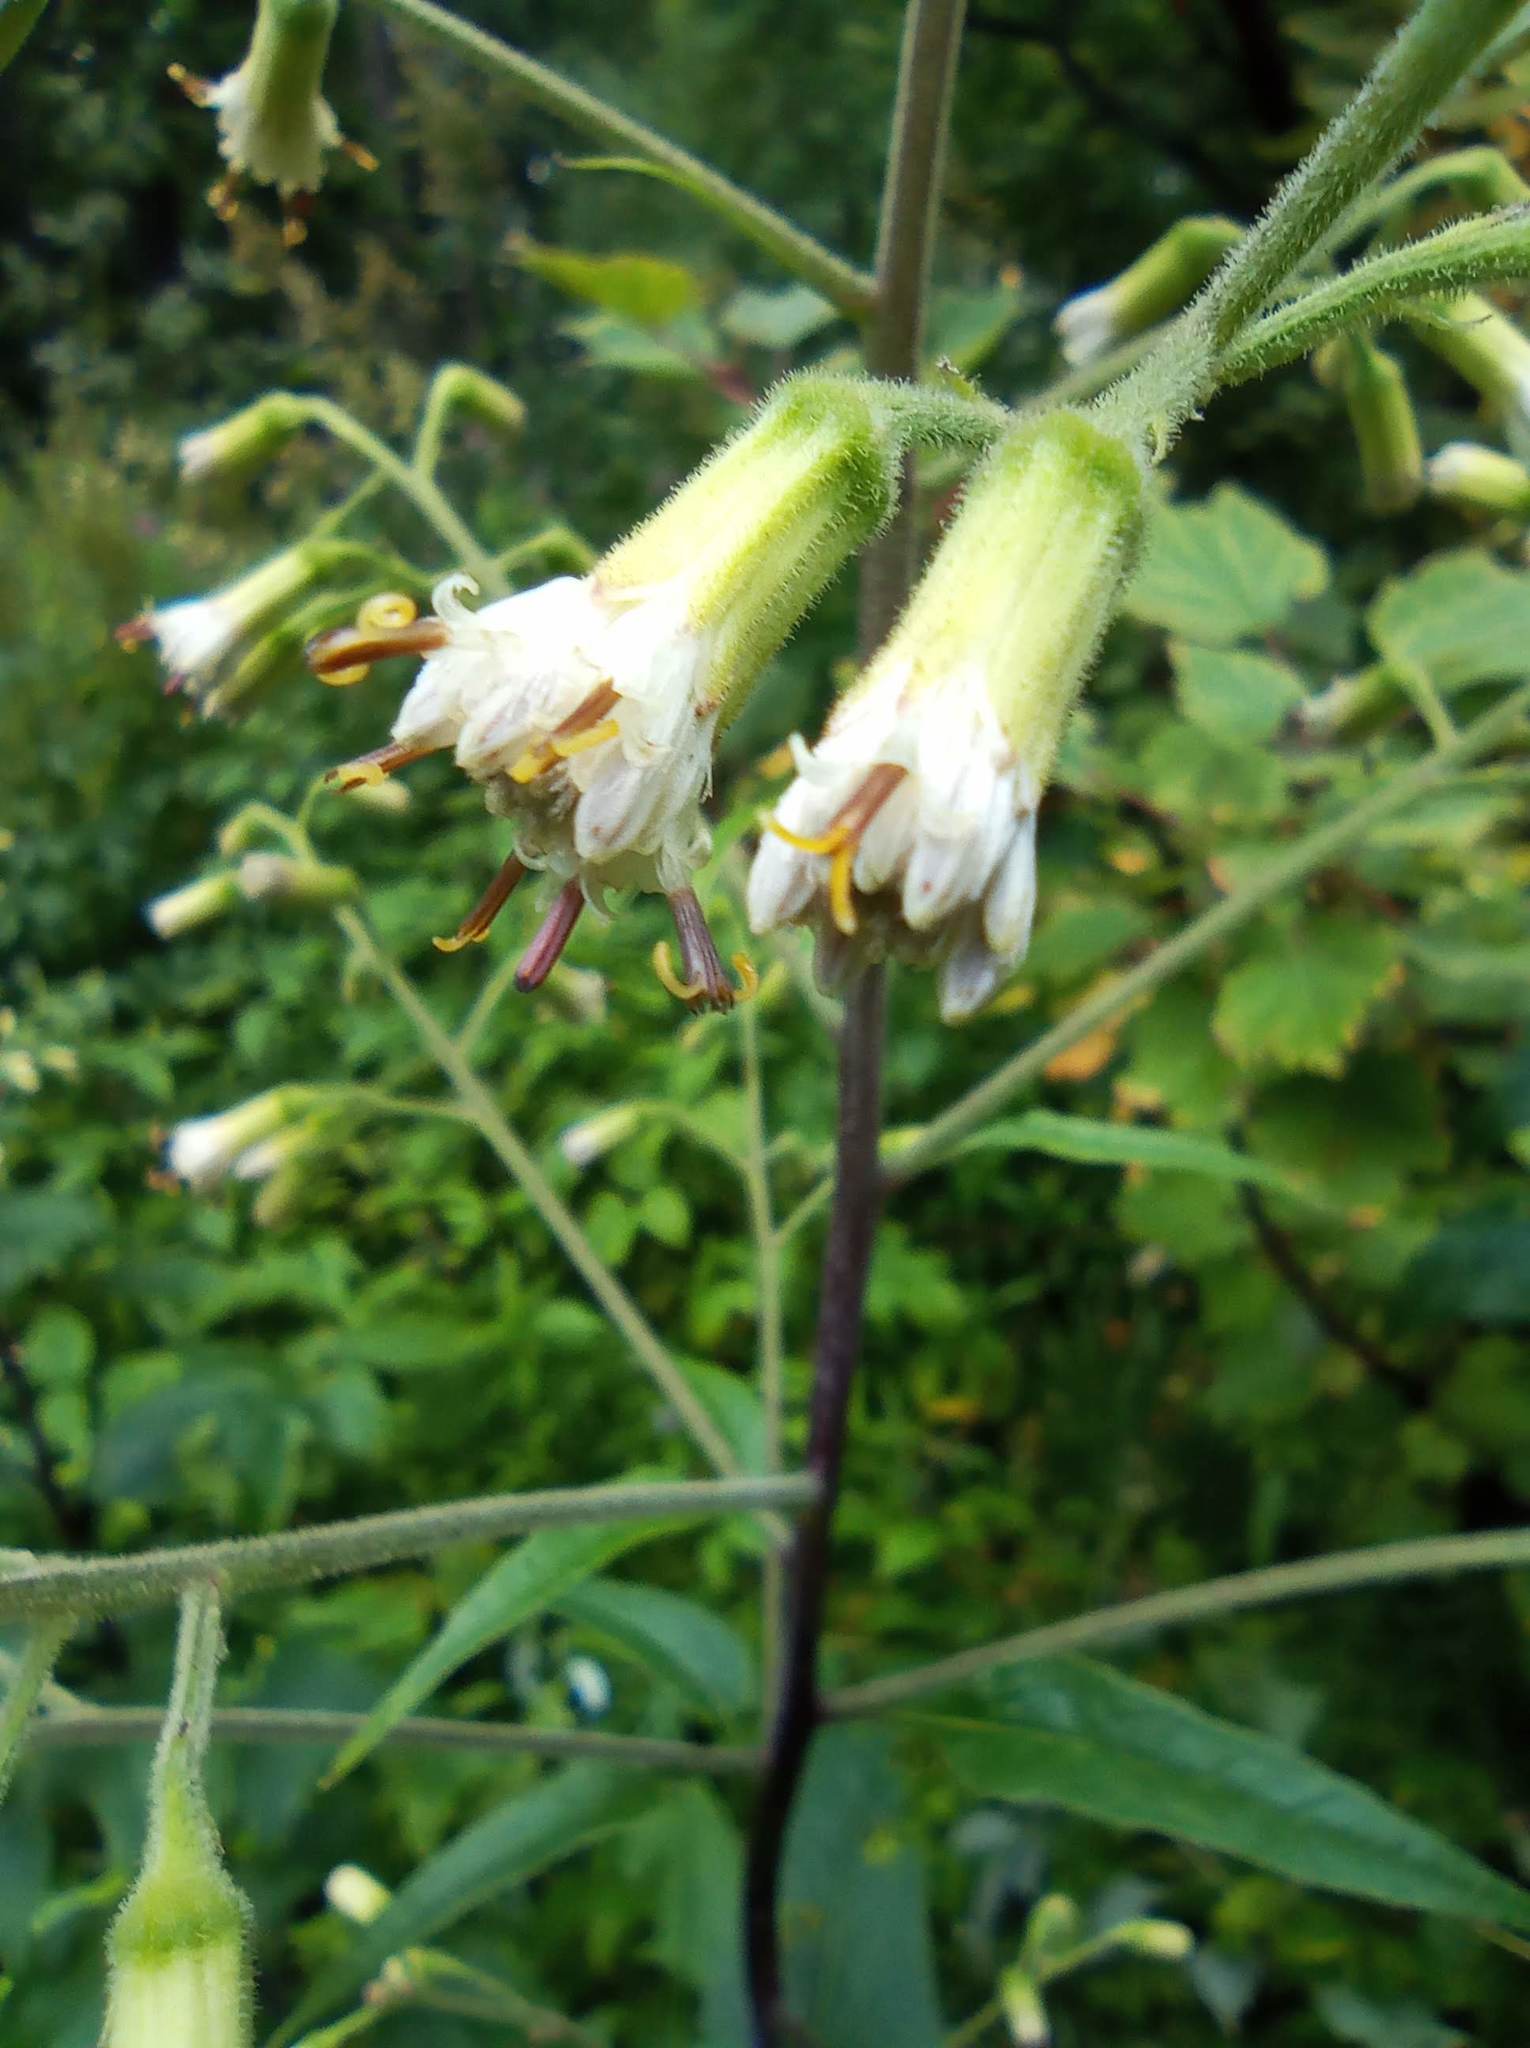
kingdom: Plantae
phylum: Tracheophyta
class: Magnoliopsida
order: Asterales
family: Asteraceae
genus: Parasenecio
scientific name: Parasenecio hastatus
